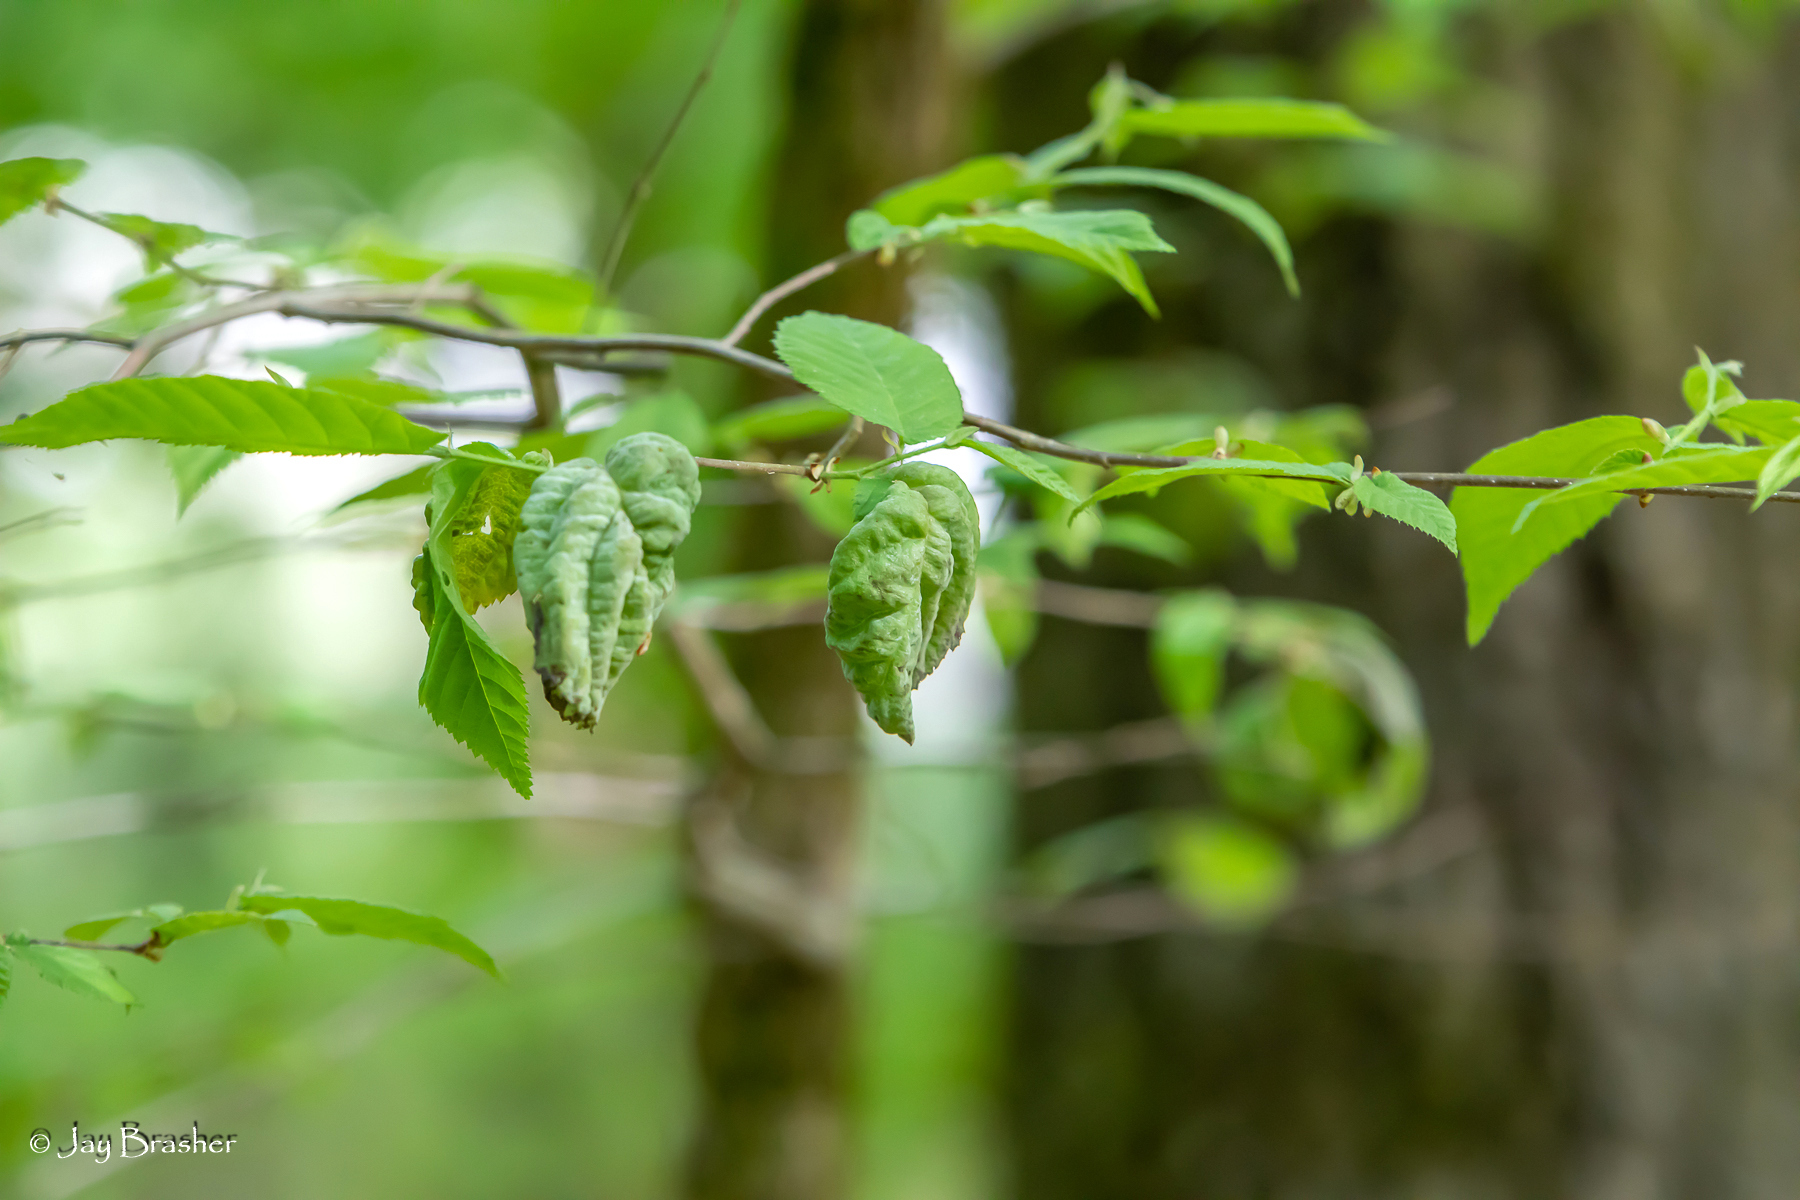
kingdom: Fungi
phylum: Ascomycota
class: Taphrinomycetes
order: Taphrinales
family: Taphrinaceae
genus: Taphrina
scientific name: Taphrina ulmi
